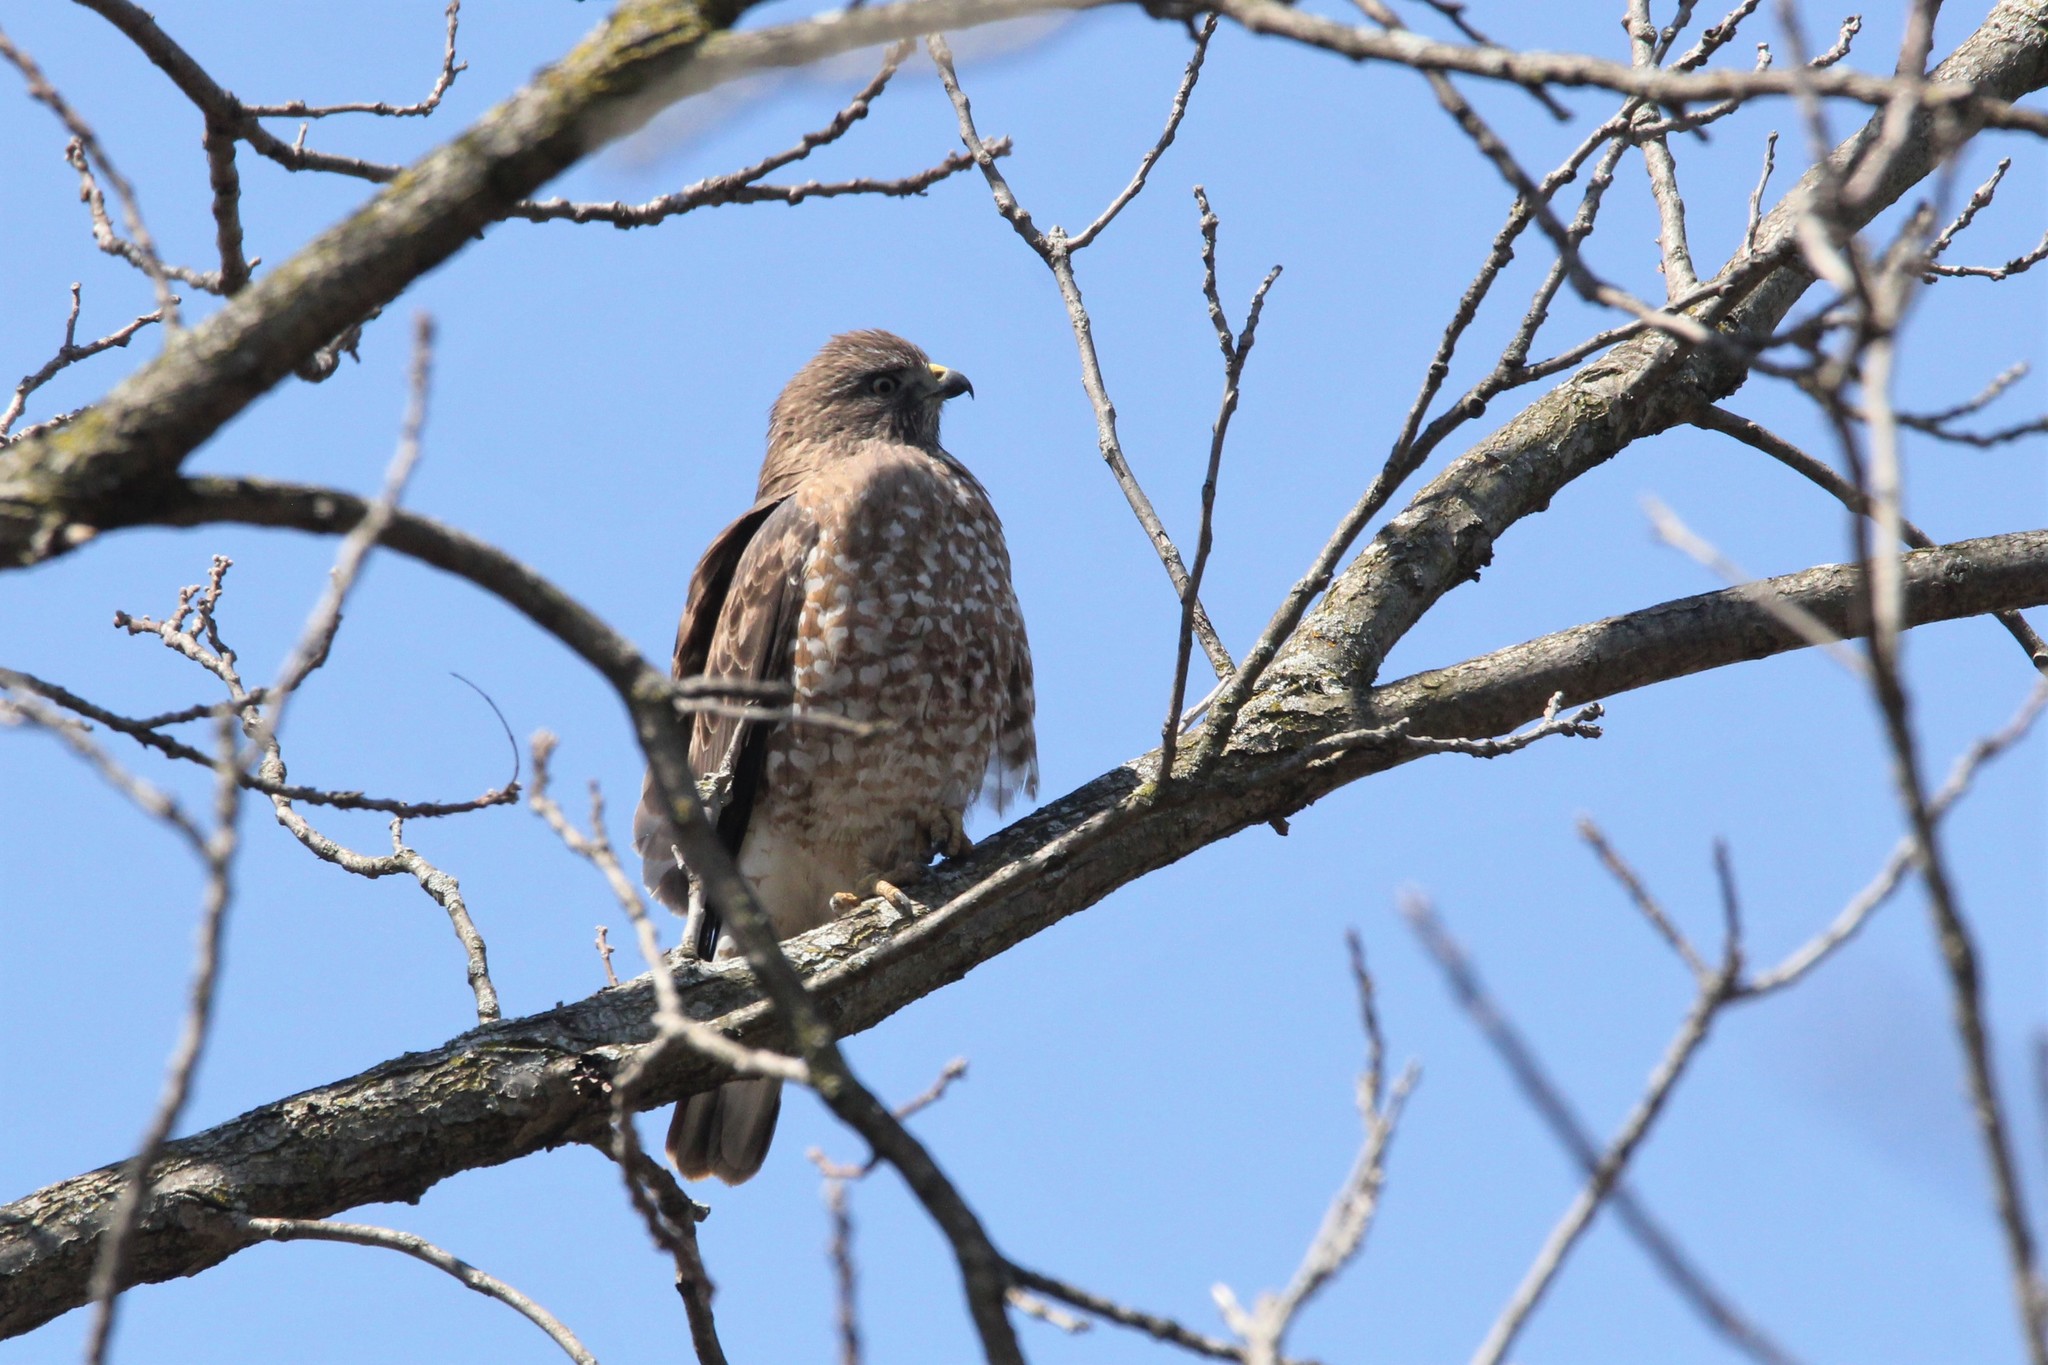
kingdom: Animalia
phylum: Chordata
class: Aves
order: Accipitriformes
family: Accipitridae
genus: Buteo
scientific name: Buteo platypterus
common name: Broad-winged hawk
